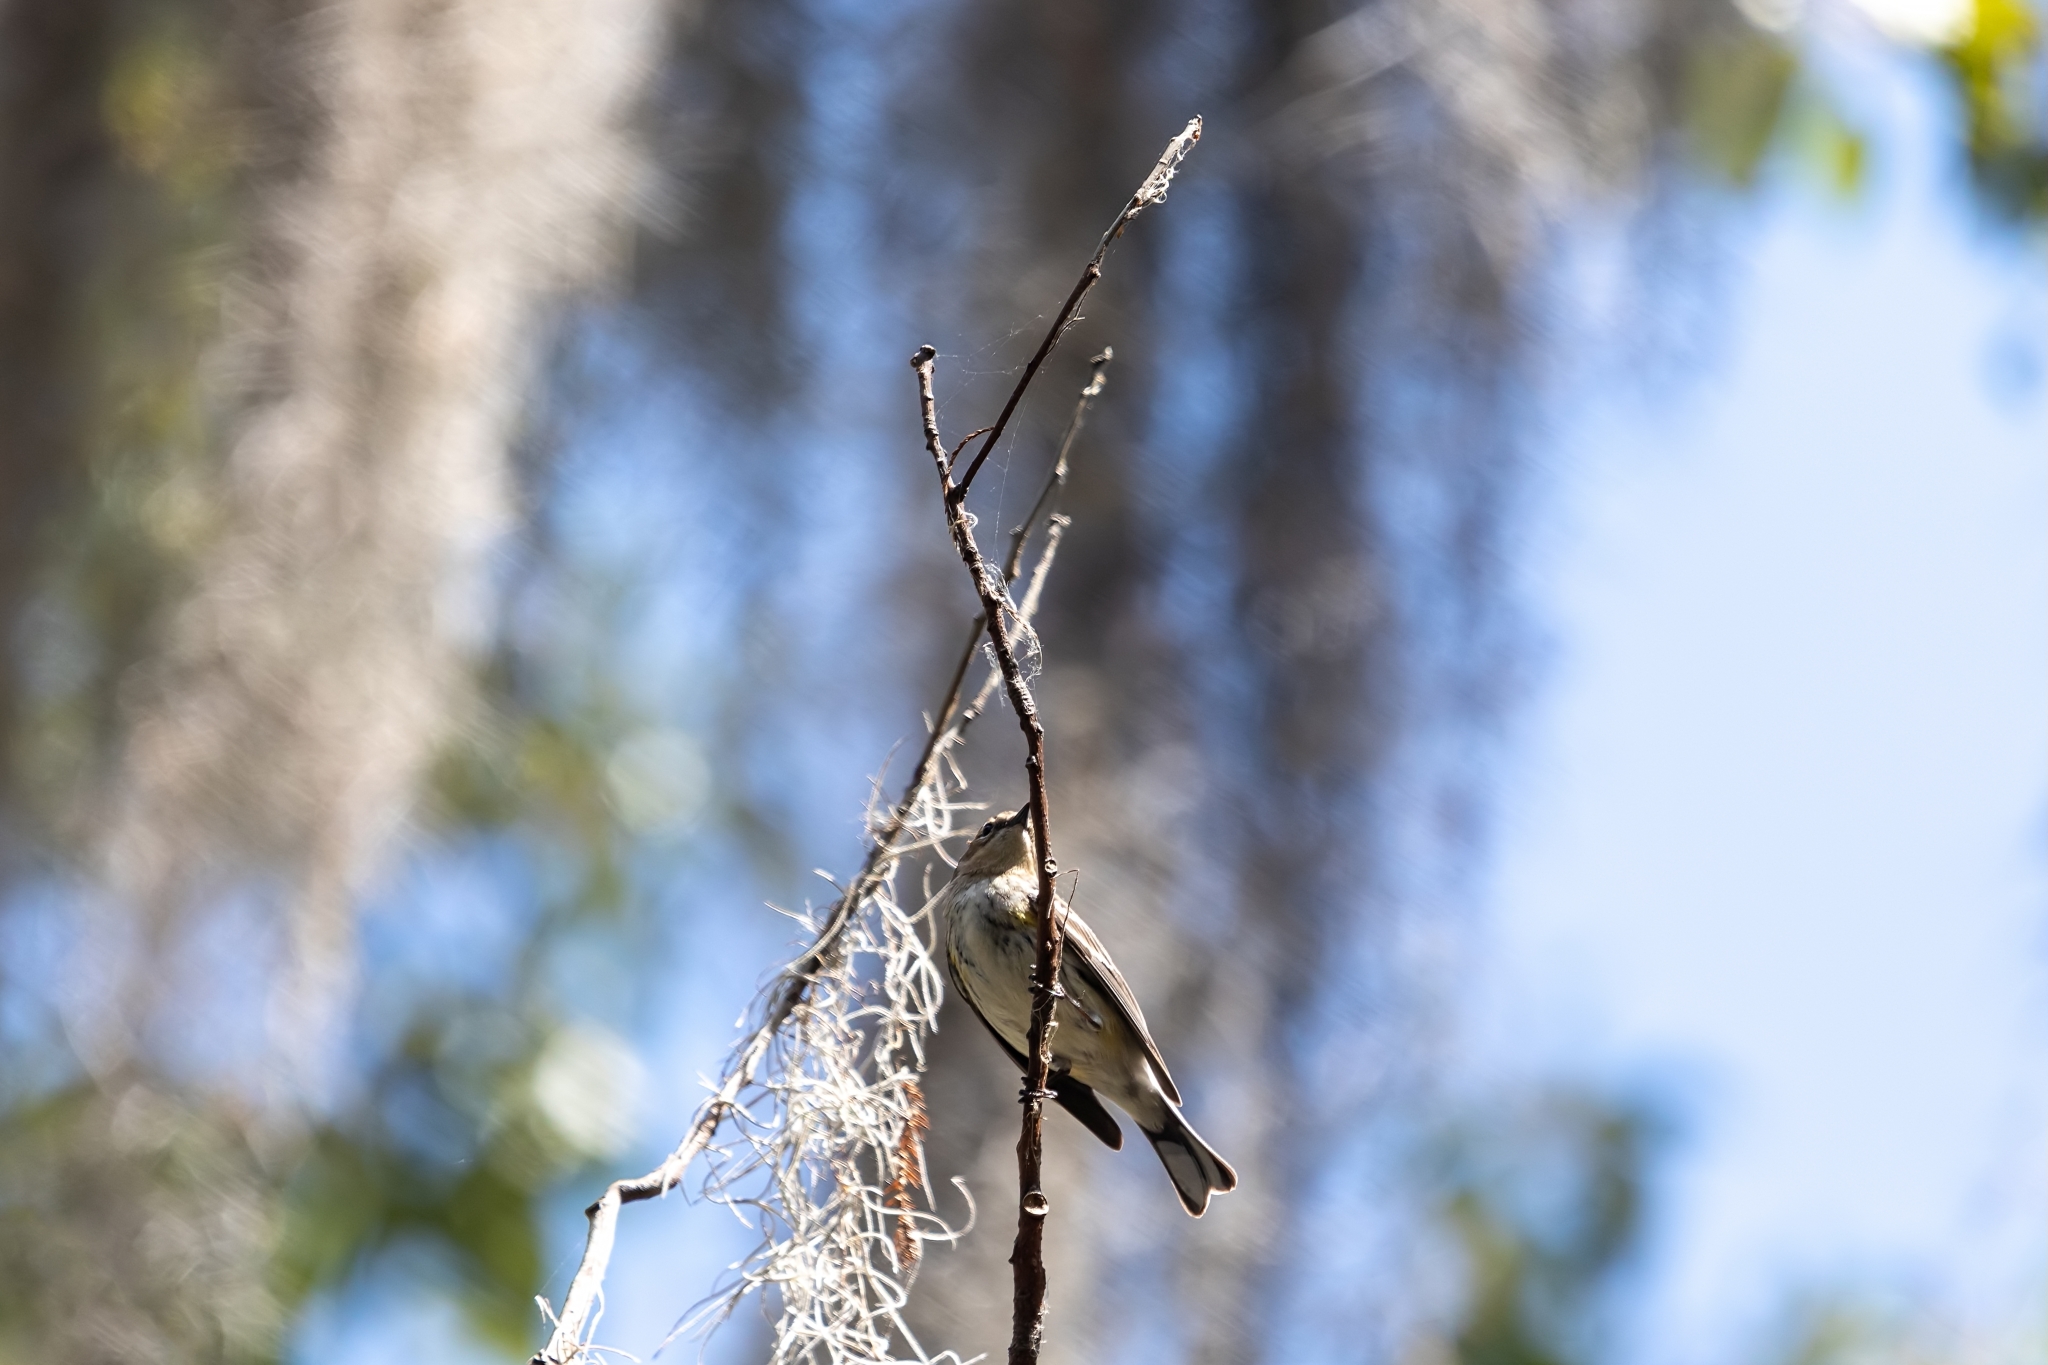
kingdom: Animalia
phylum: Chordata
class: Aves
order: Passeriformes
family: Parulidae
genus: Setophaga
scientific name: Setophaga coronata
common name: Myrtle warbler
